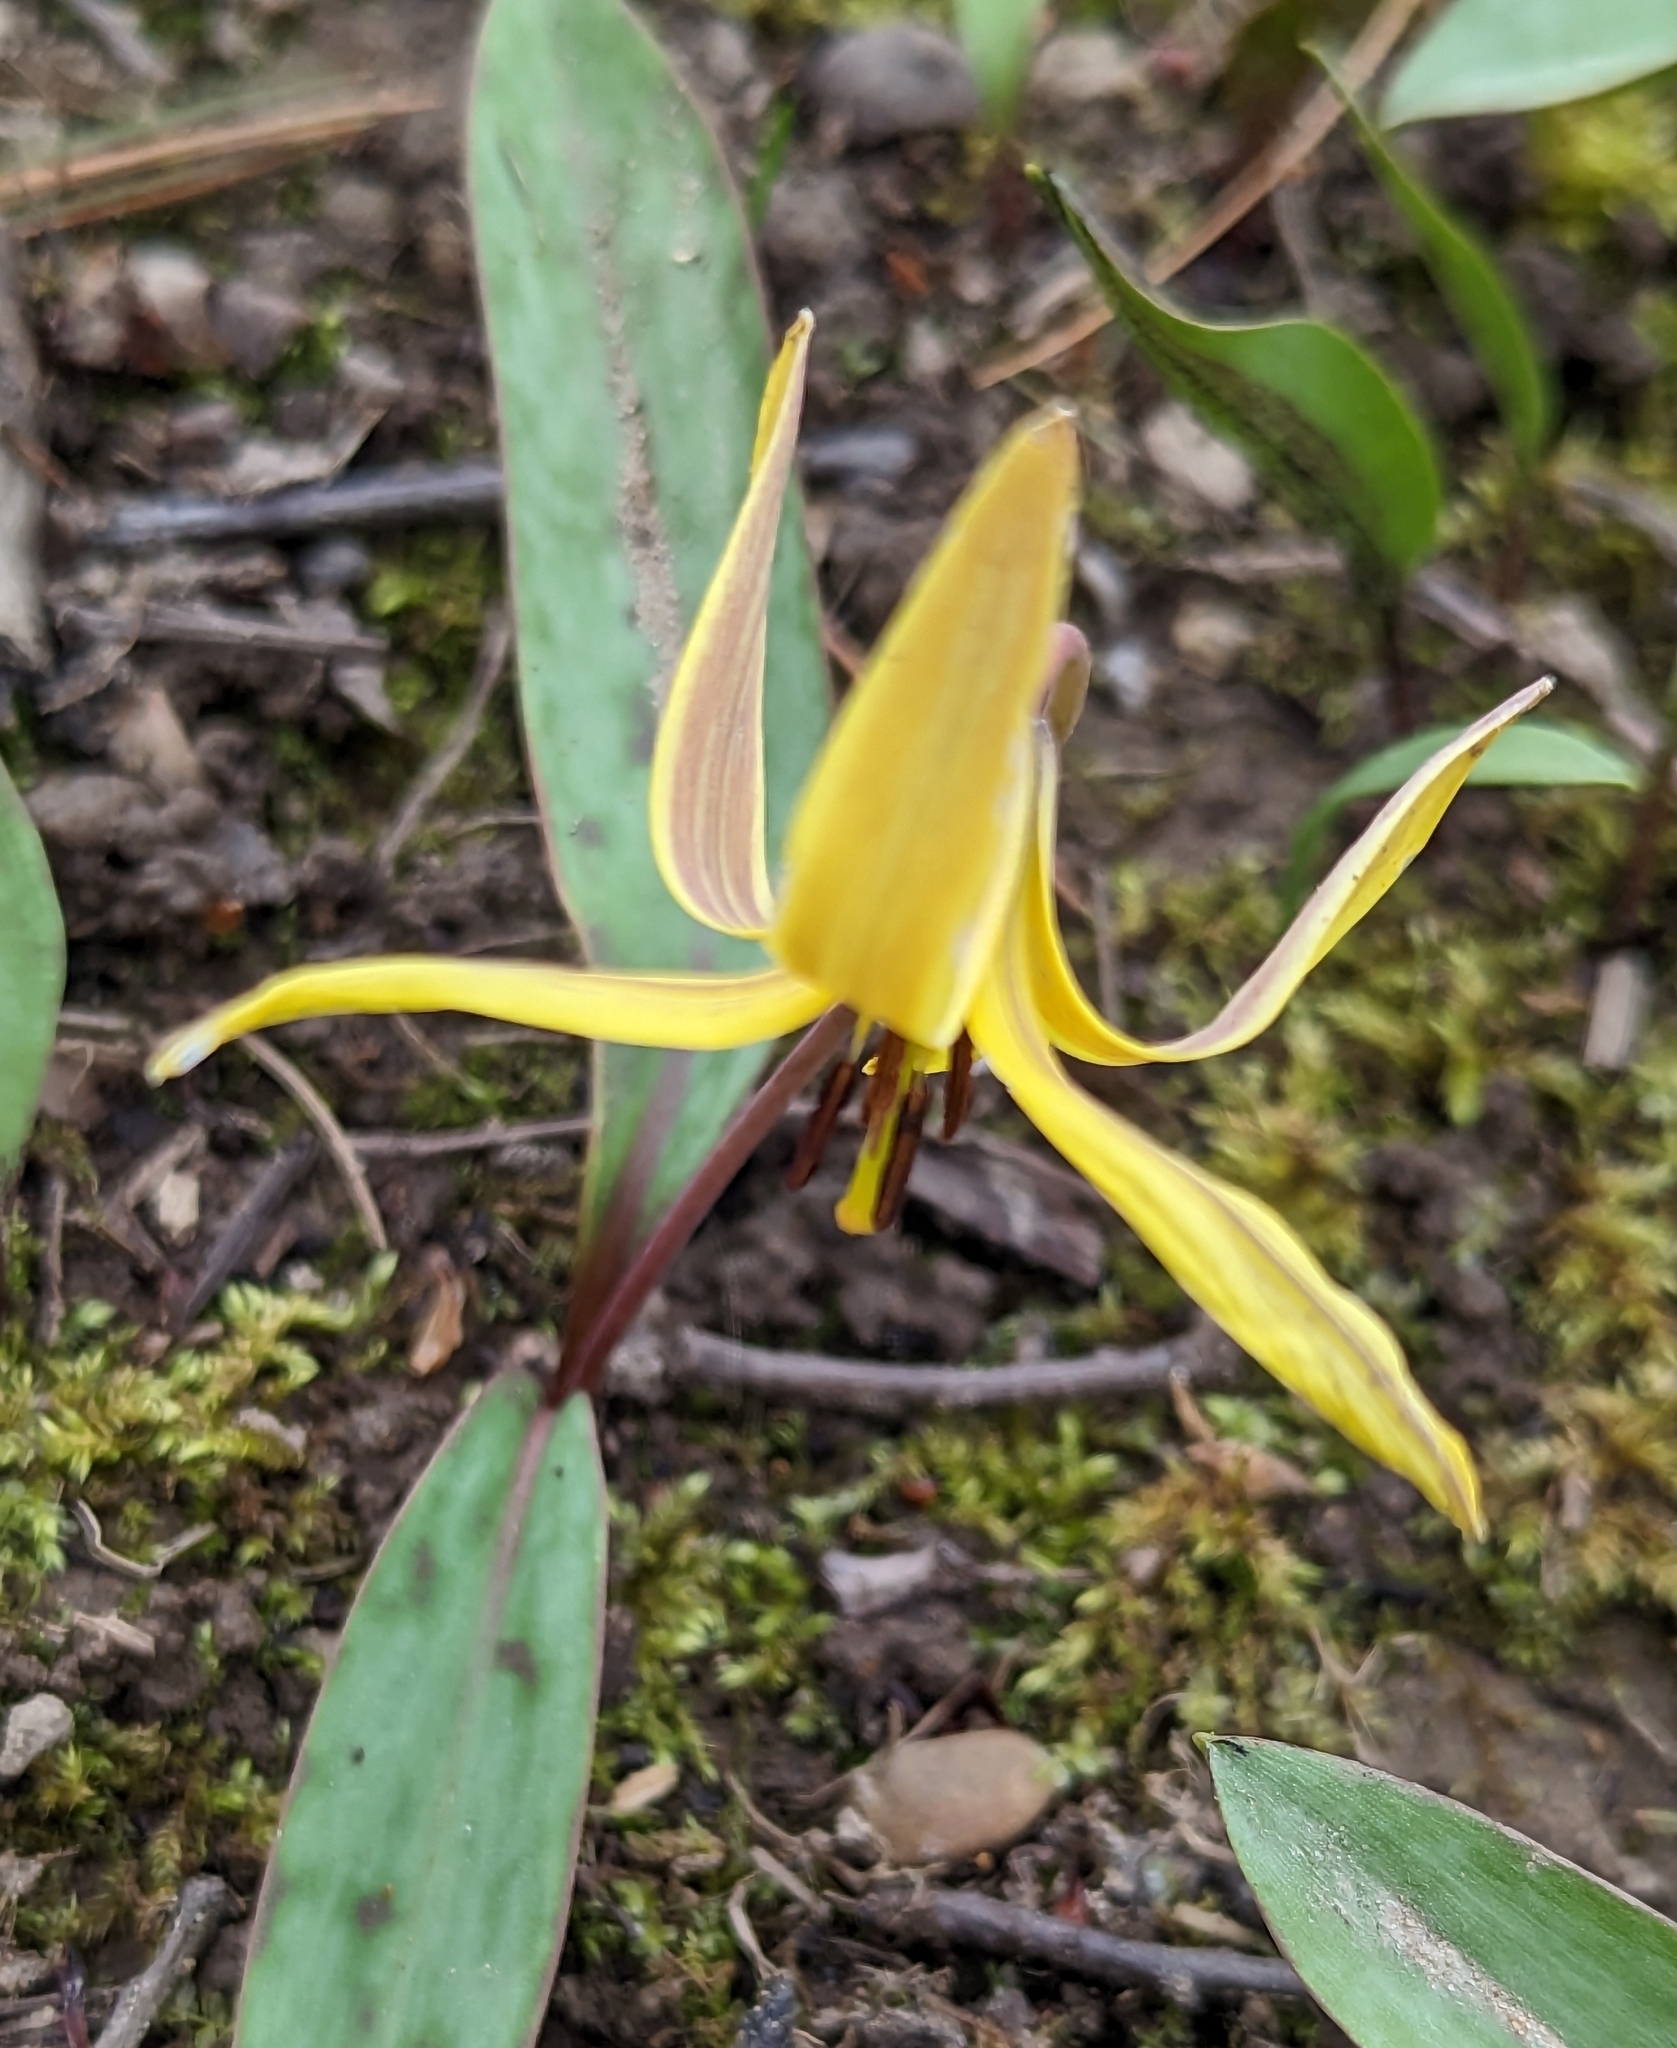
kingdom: Plantae
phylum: Tracheophyta
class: Liliopsida
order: Liliales
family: Liliaceae
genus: Erythronium
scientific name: Erythronium americanum
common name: Yellow adder's-tongue
